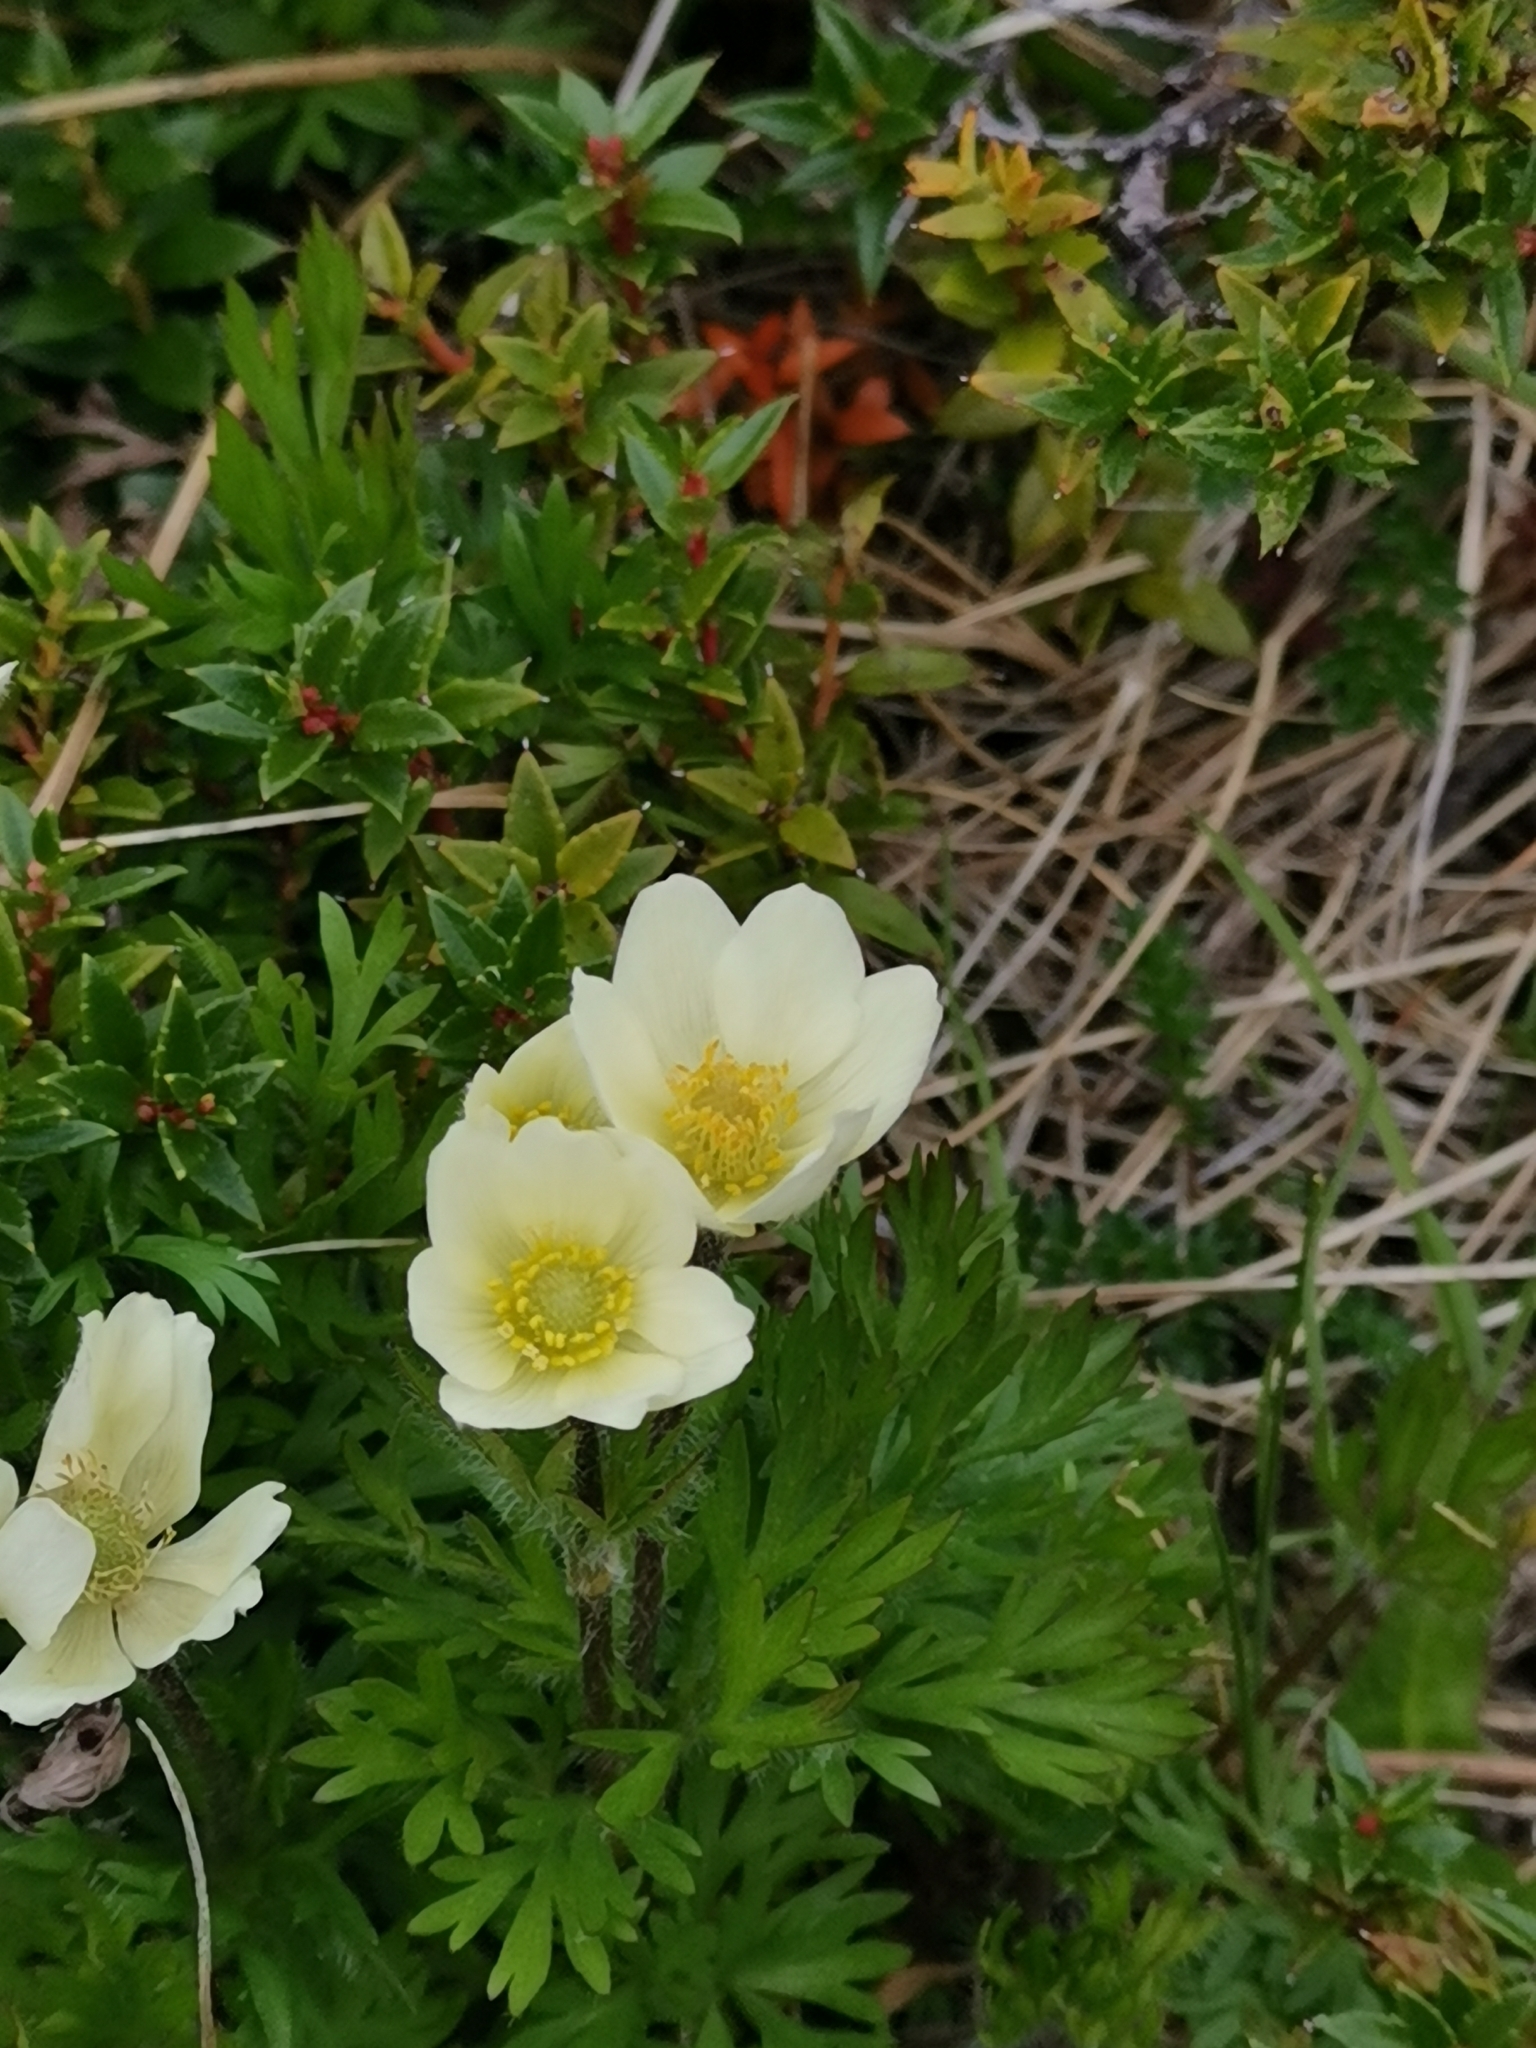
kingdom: Plantae
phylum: Tracheophyta
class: Magnoliopsida
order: Ranunculales
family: Ranunculaceae
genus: Anemone
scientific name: Anemone multifida
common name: Bird's-foot anemone
